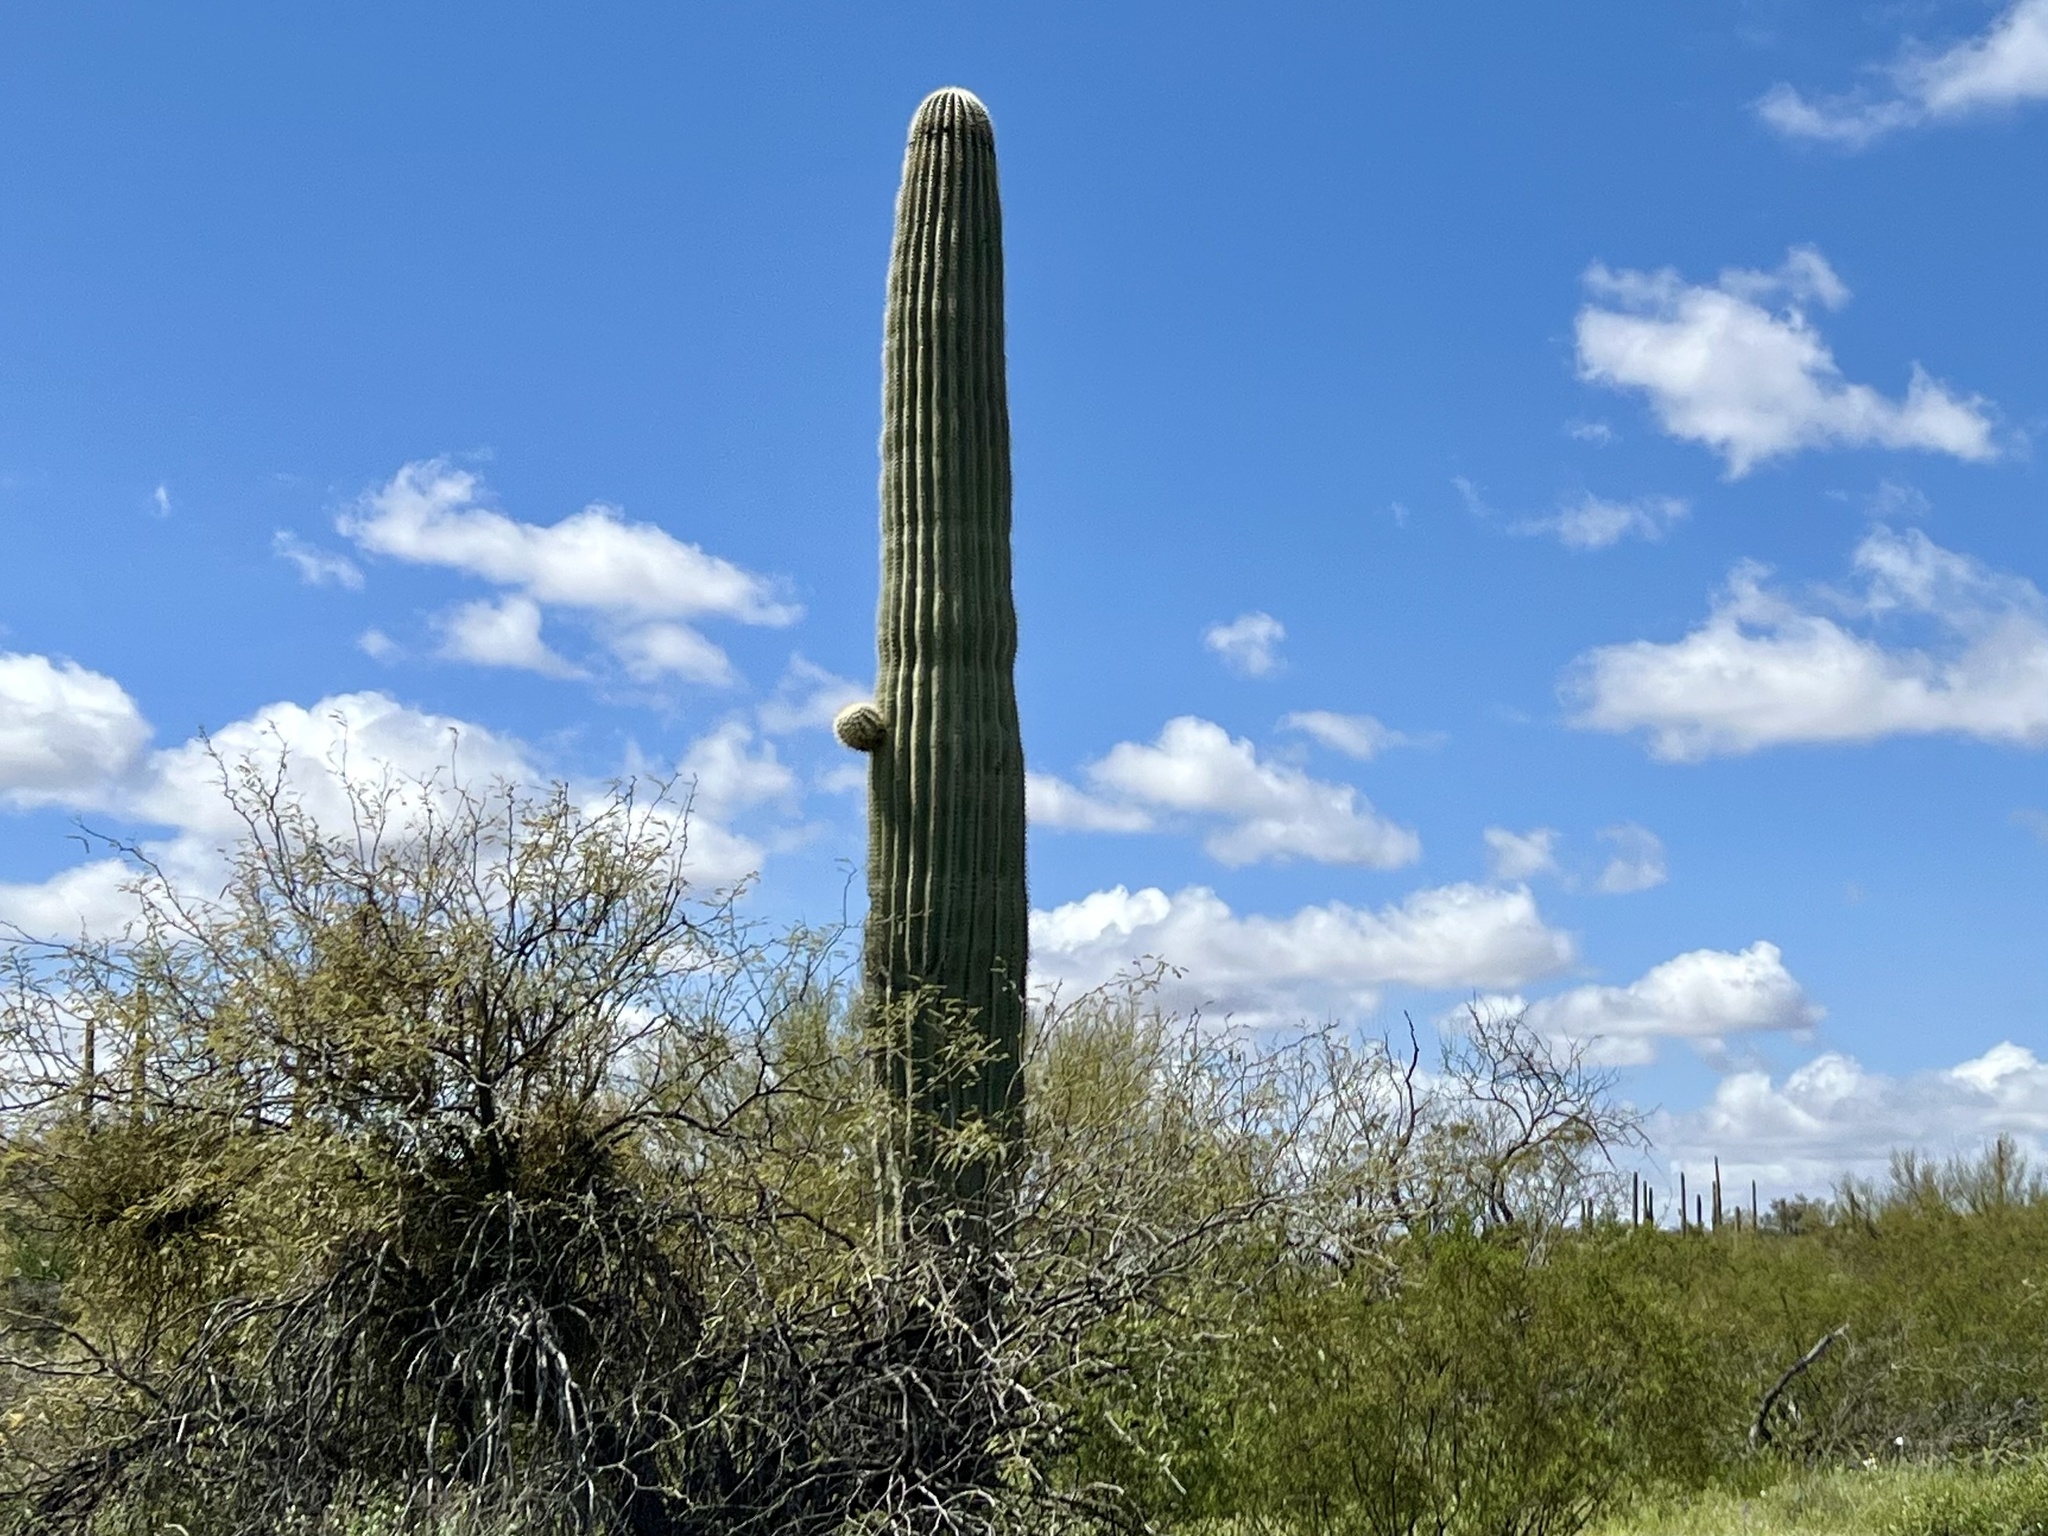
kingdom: Plantae
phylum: Tracheophyta
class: Magnoliopsida
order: Caryophyllales
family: Cactaceae
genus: Carnegiea
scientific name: Carnegiea gigantea
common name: Saguaro
